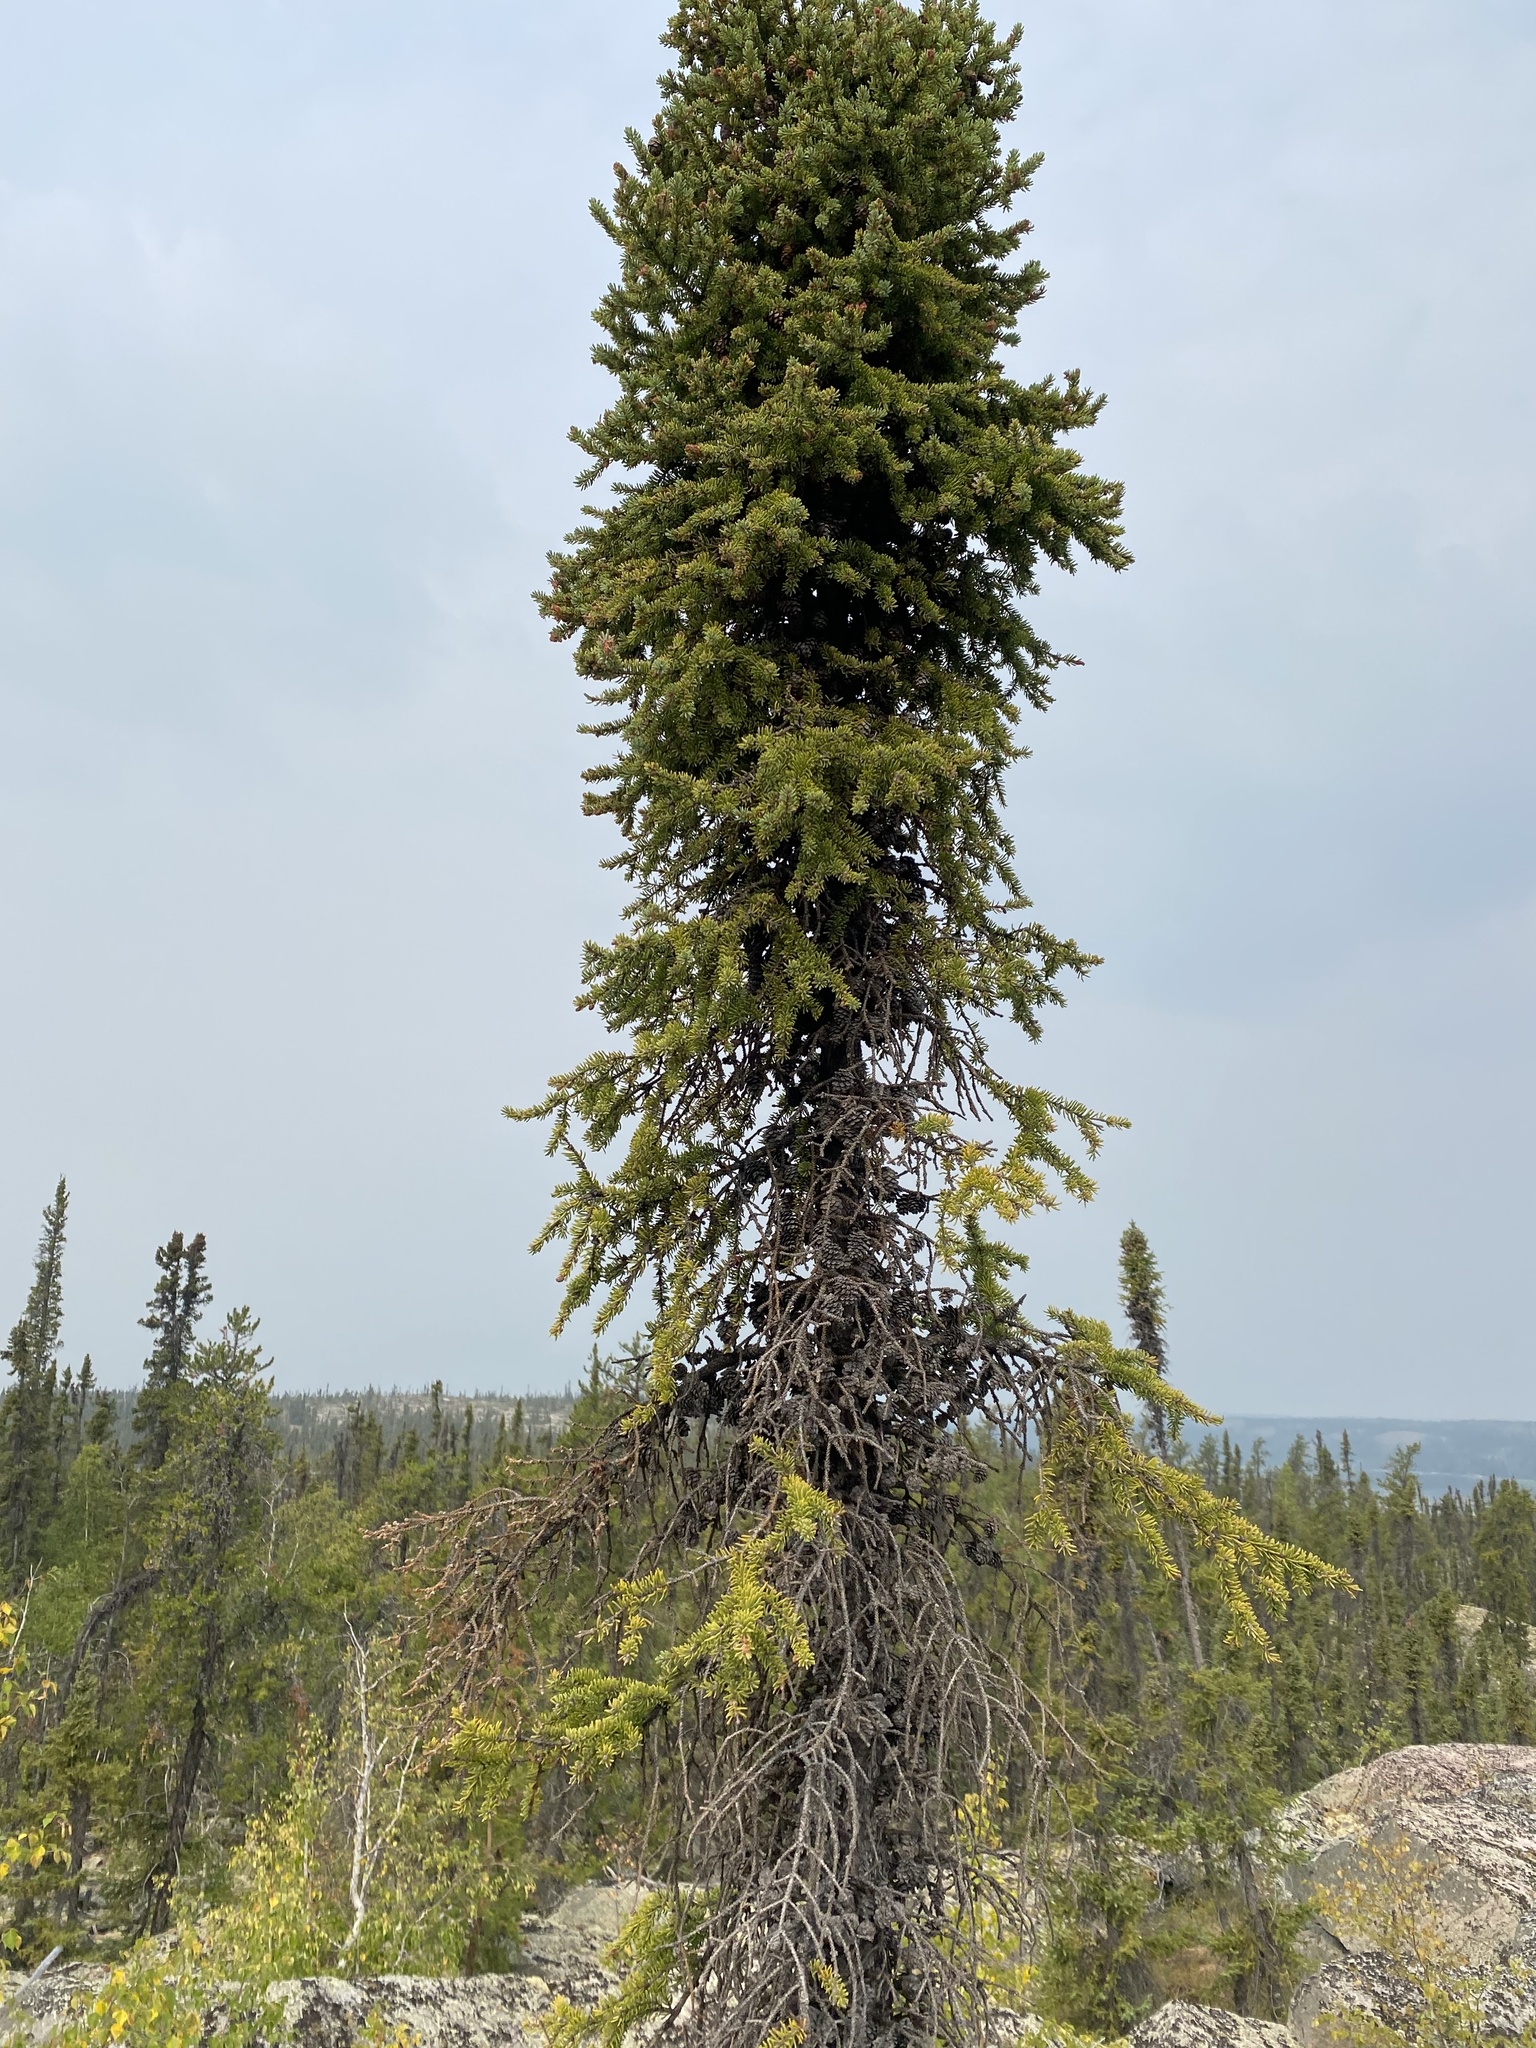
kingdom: Plantae
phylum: Tracheophyta
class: Pinopsida
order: Pinales
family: Pinaceae
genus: Picea
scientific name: Picea mariana
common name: Black spruce
